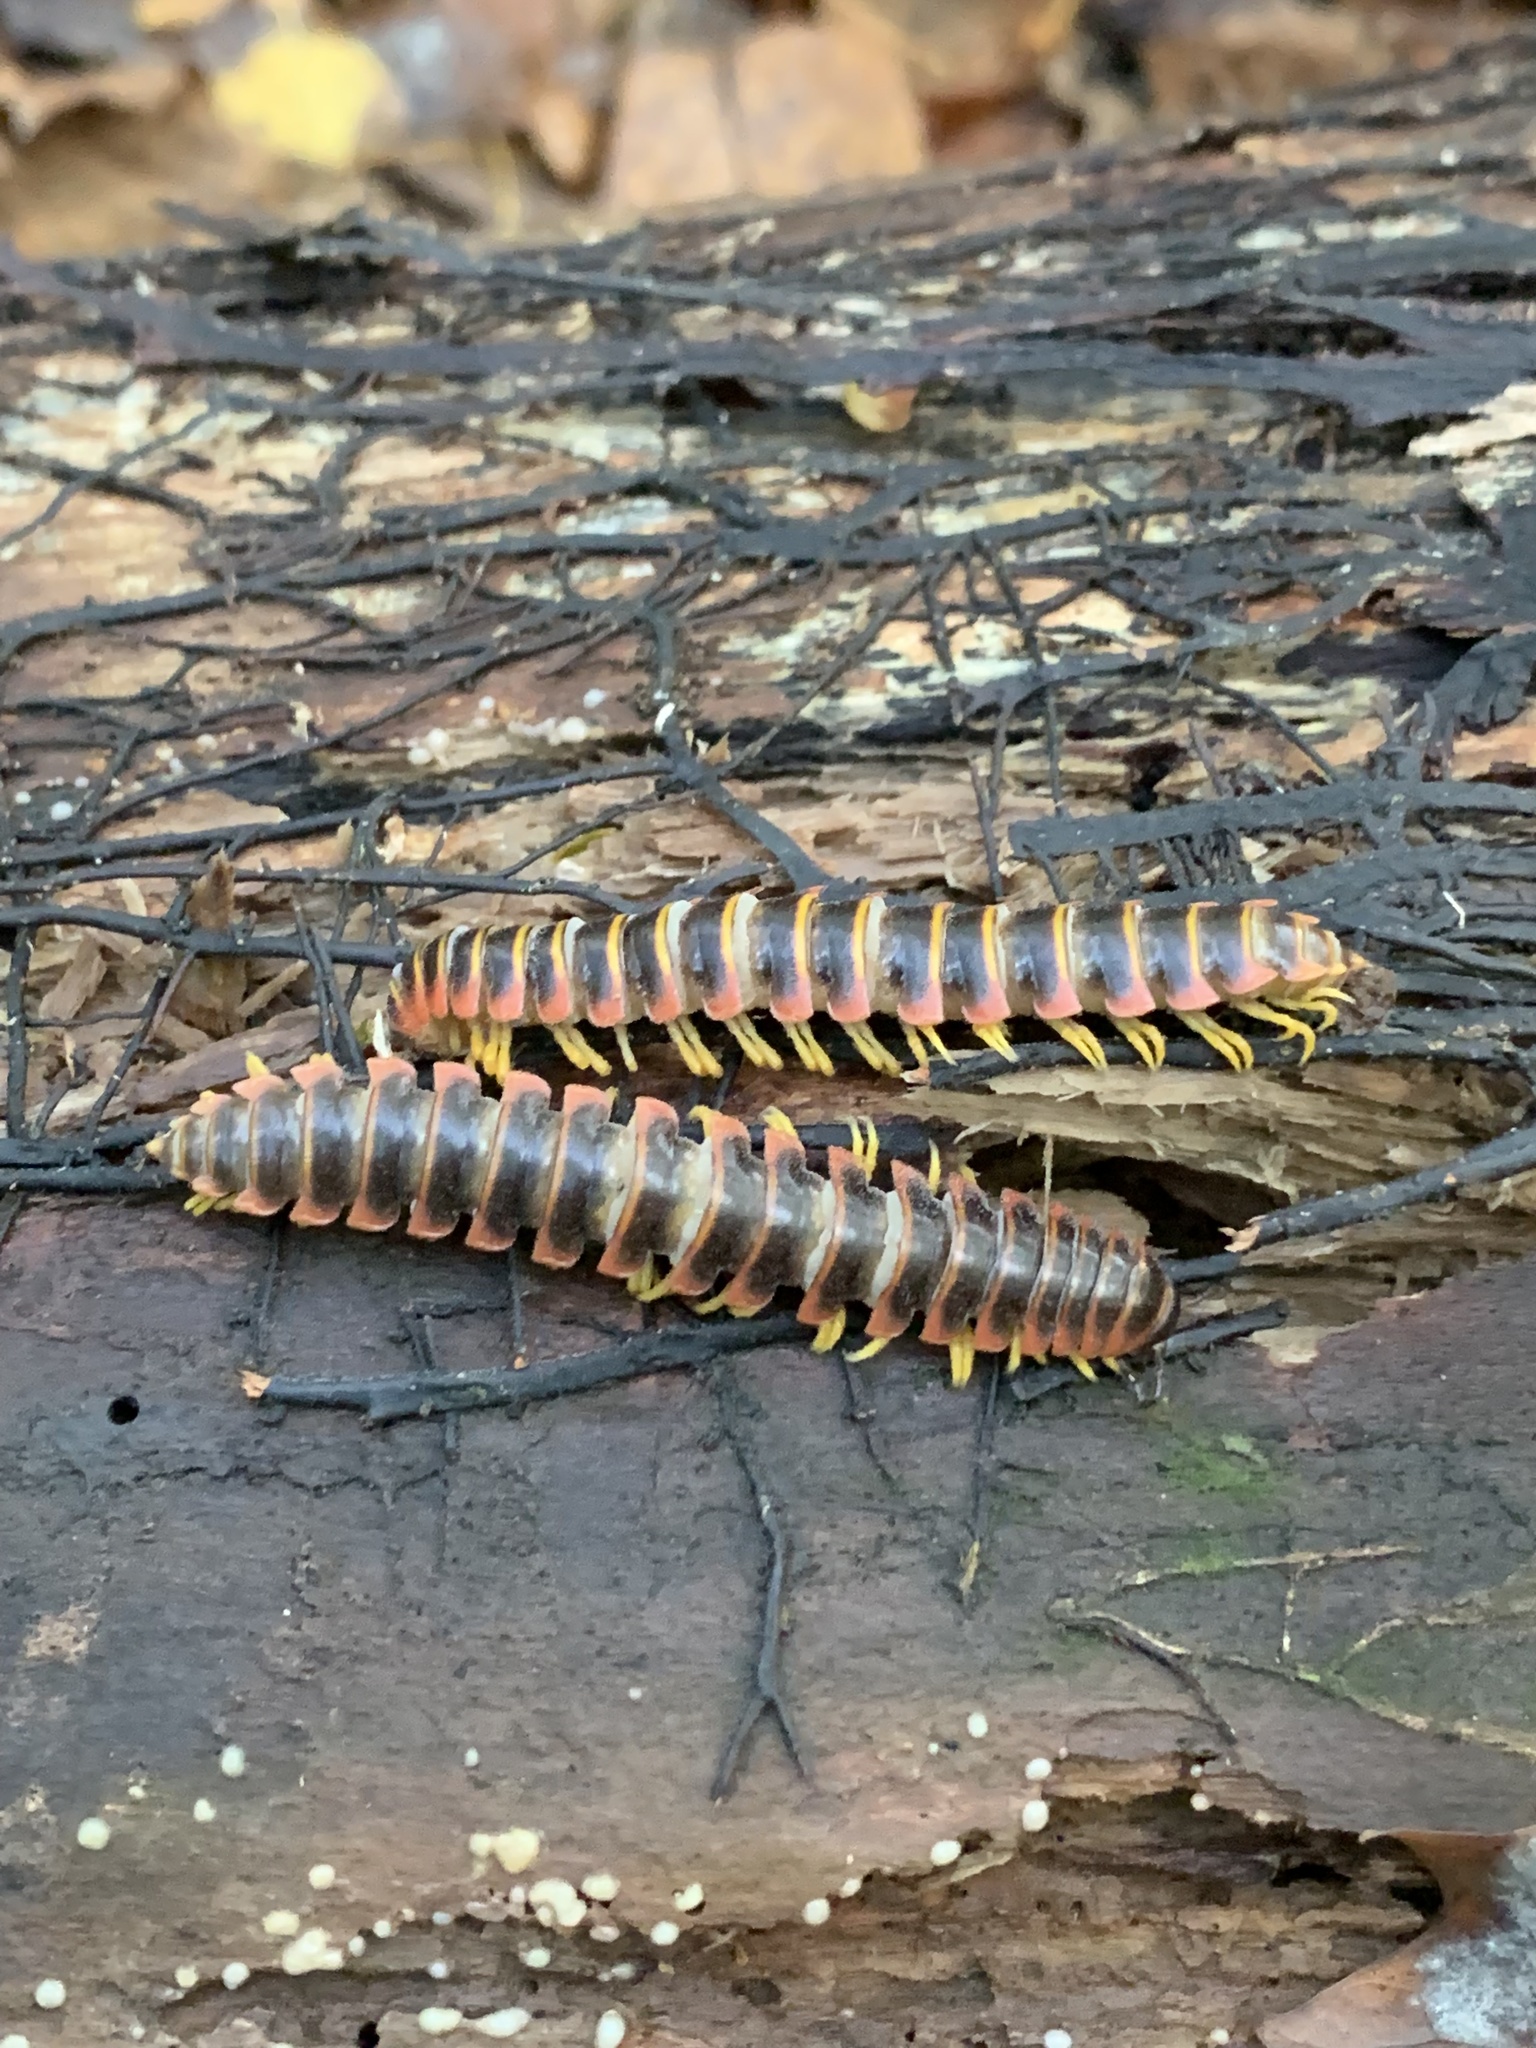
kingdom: Animalia
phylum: Arthropoda
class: Diplopoda
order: Polydesmida
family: Xystodesmidae
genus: Apheloria
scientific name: Apheloria virginiensis
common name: Black-and-gold flat millipede
